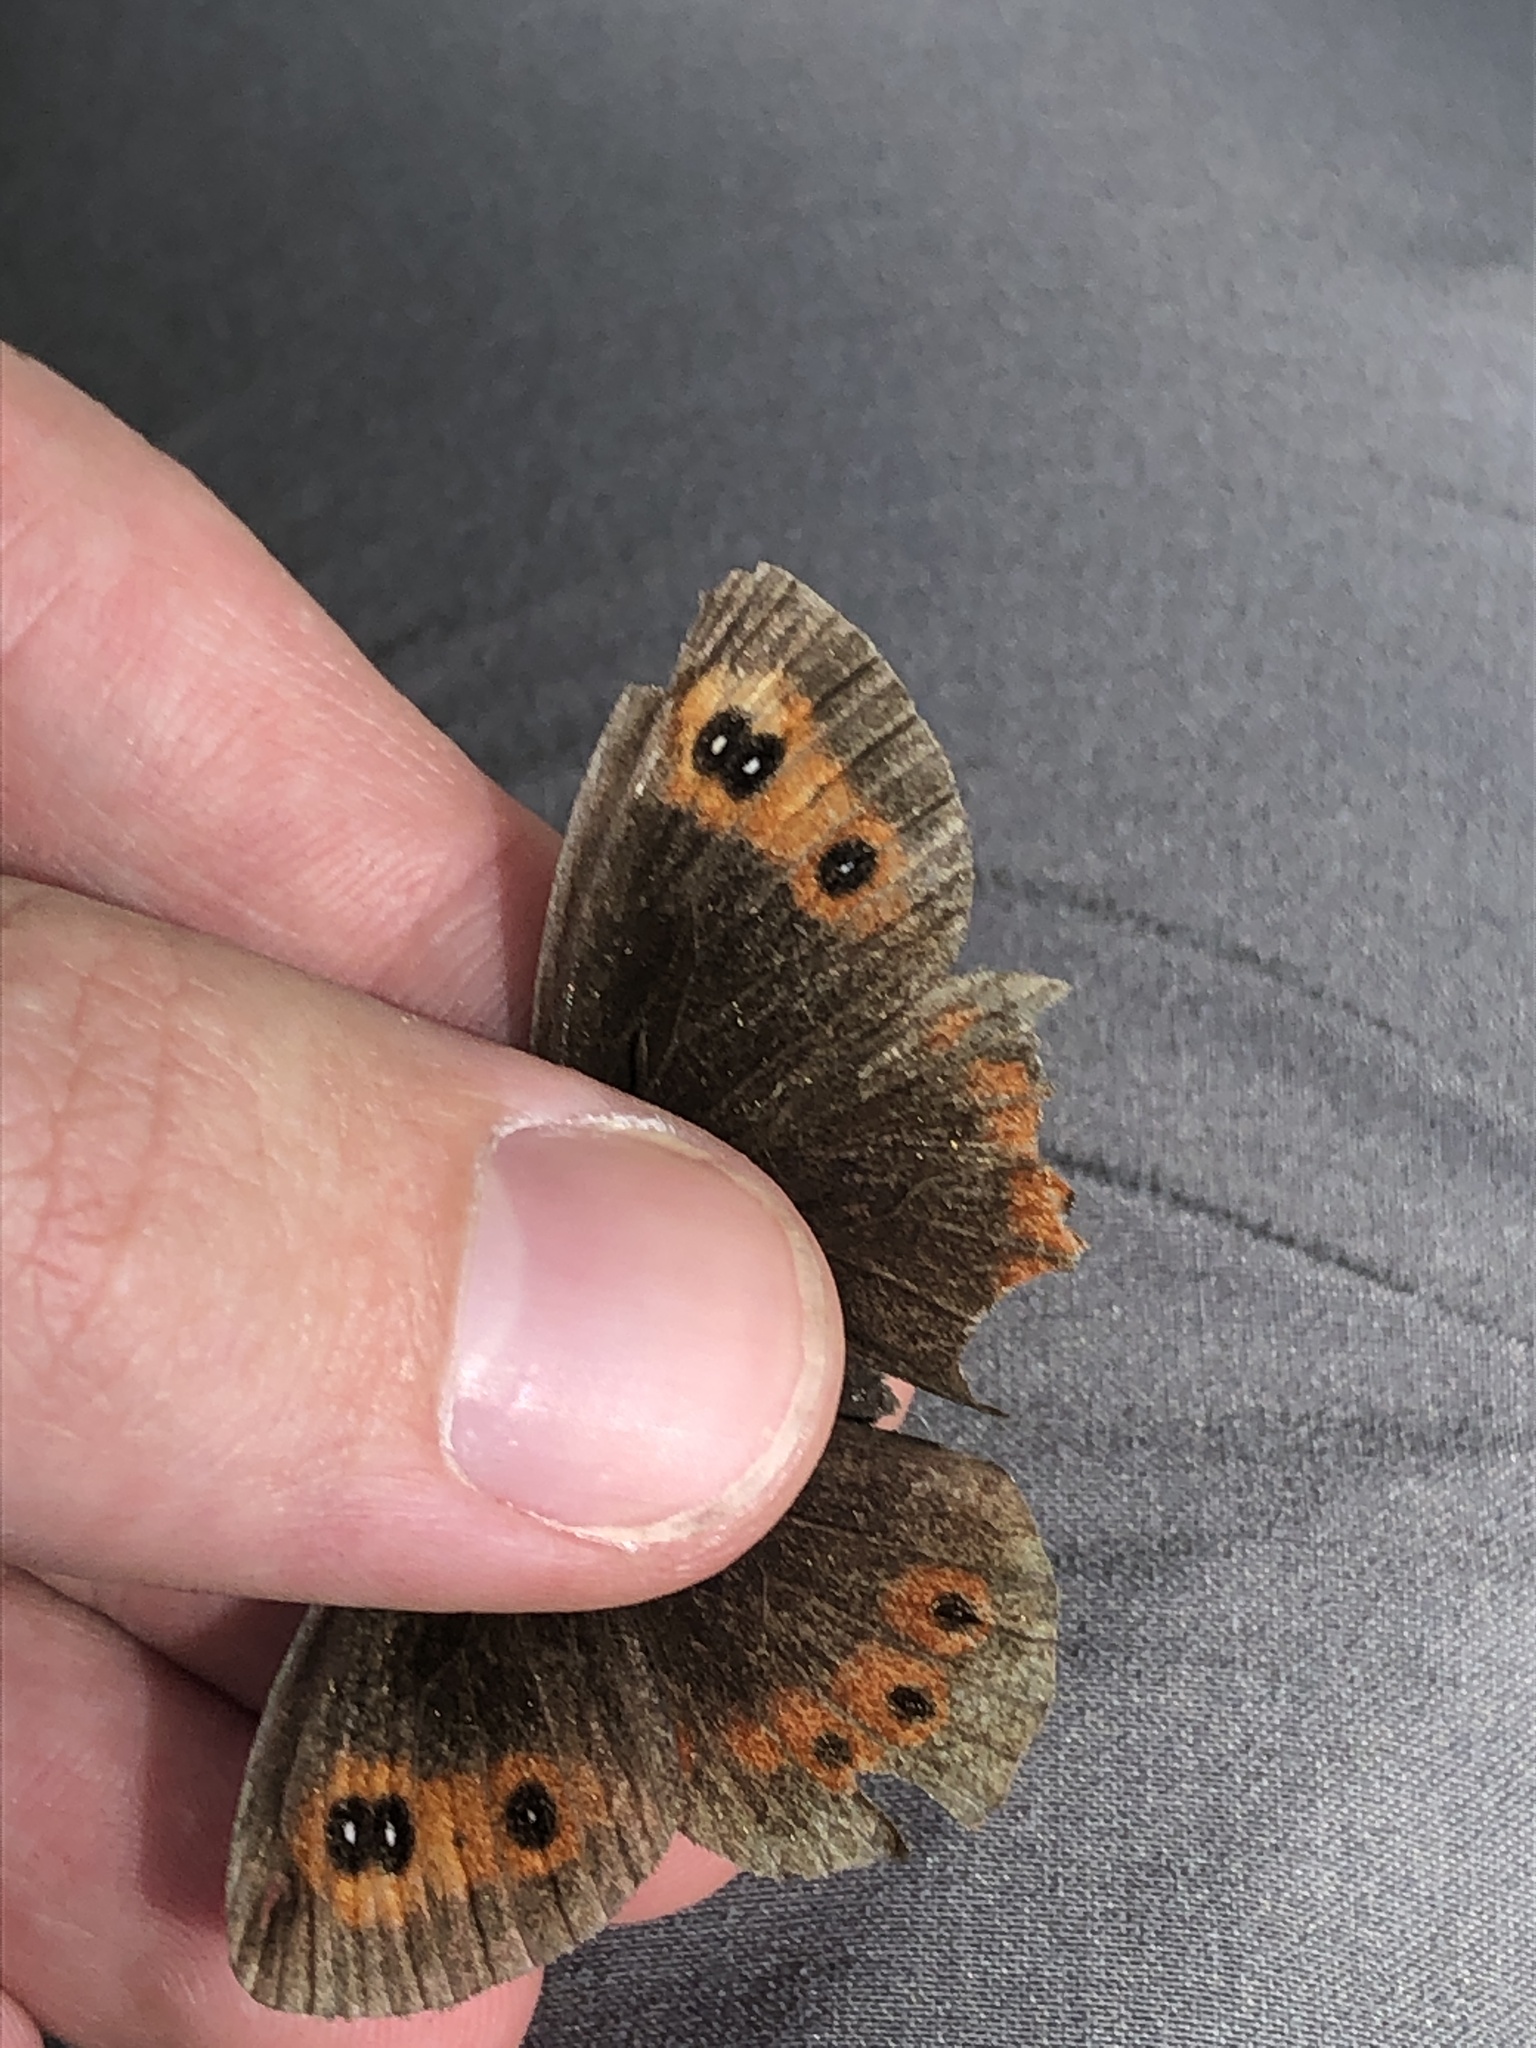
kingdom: Animalia
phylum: Arthropoda
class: Insecta
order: Lepidoptera
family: Nymphalidae
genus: Erebia
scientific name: Erebia ligea
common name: Arran brown
